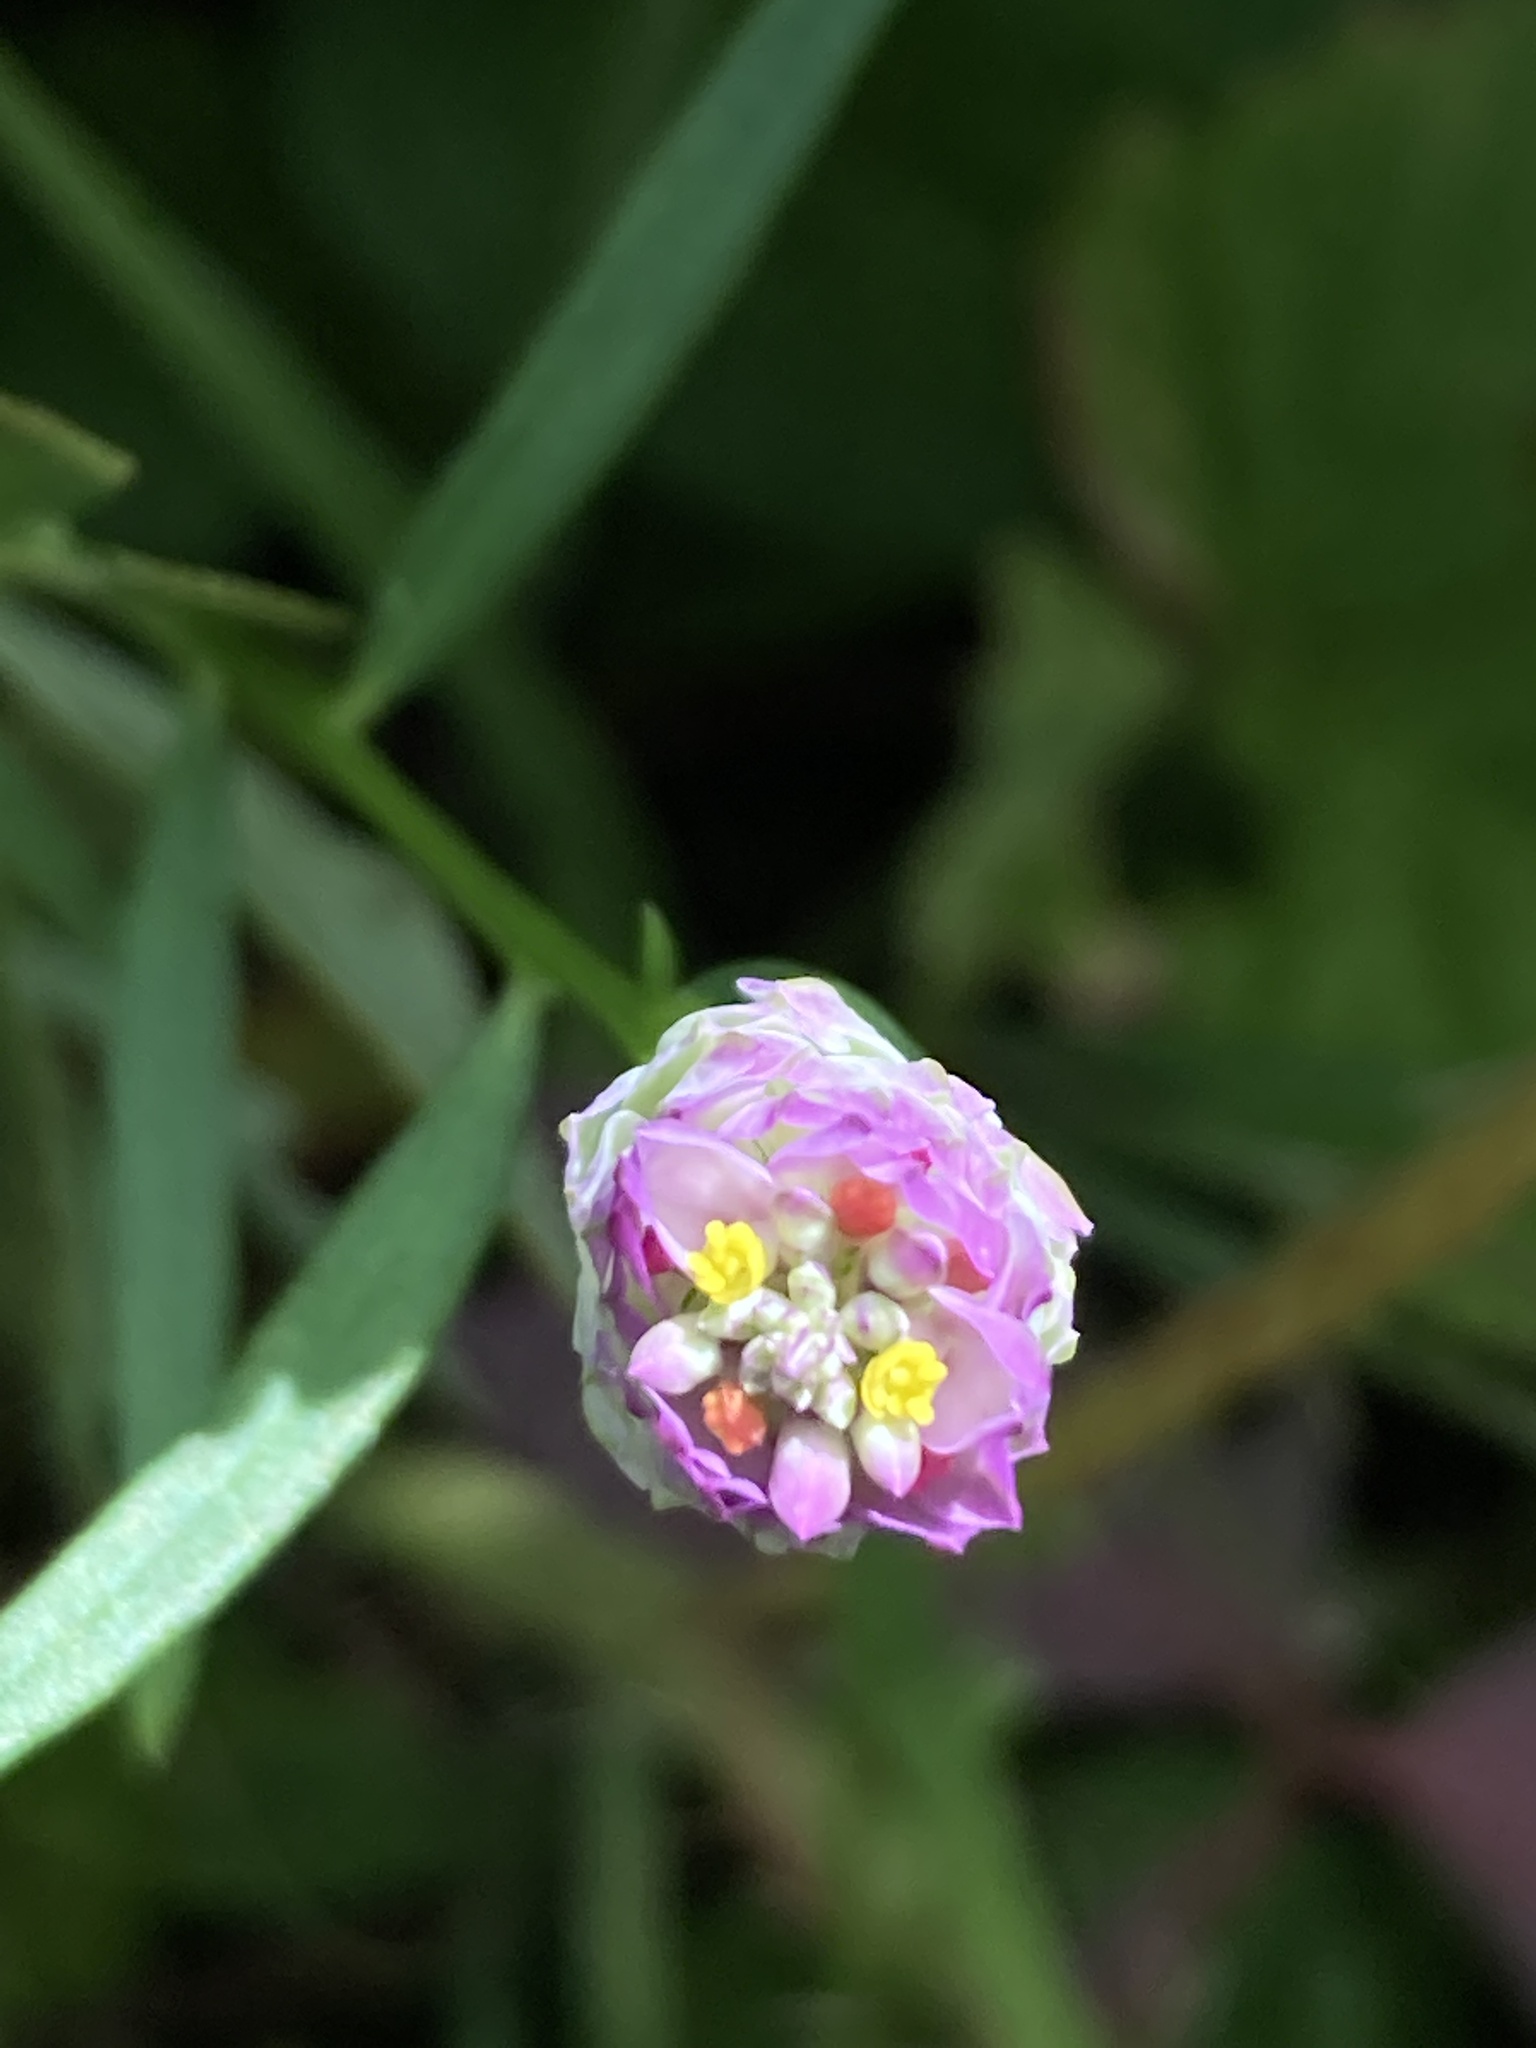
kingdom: Plantae
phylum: Tracheophyta
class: Magnoliopsida
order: Fabales
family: Polygalaceae
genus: Polygala
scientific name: Polygala cruciata
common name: Drumheads
